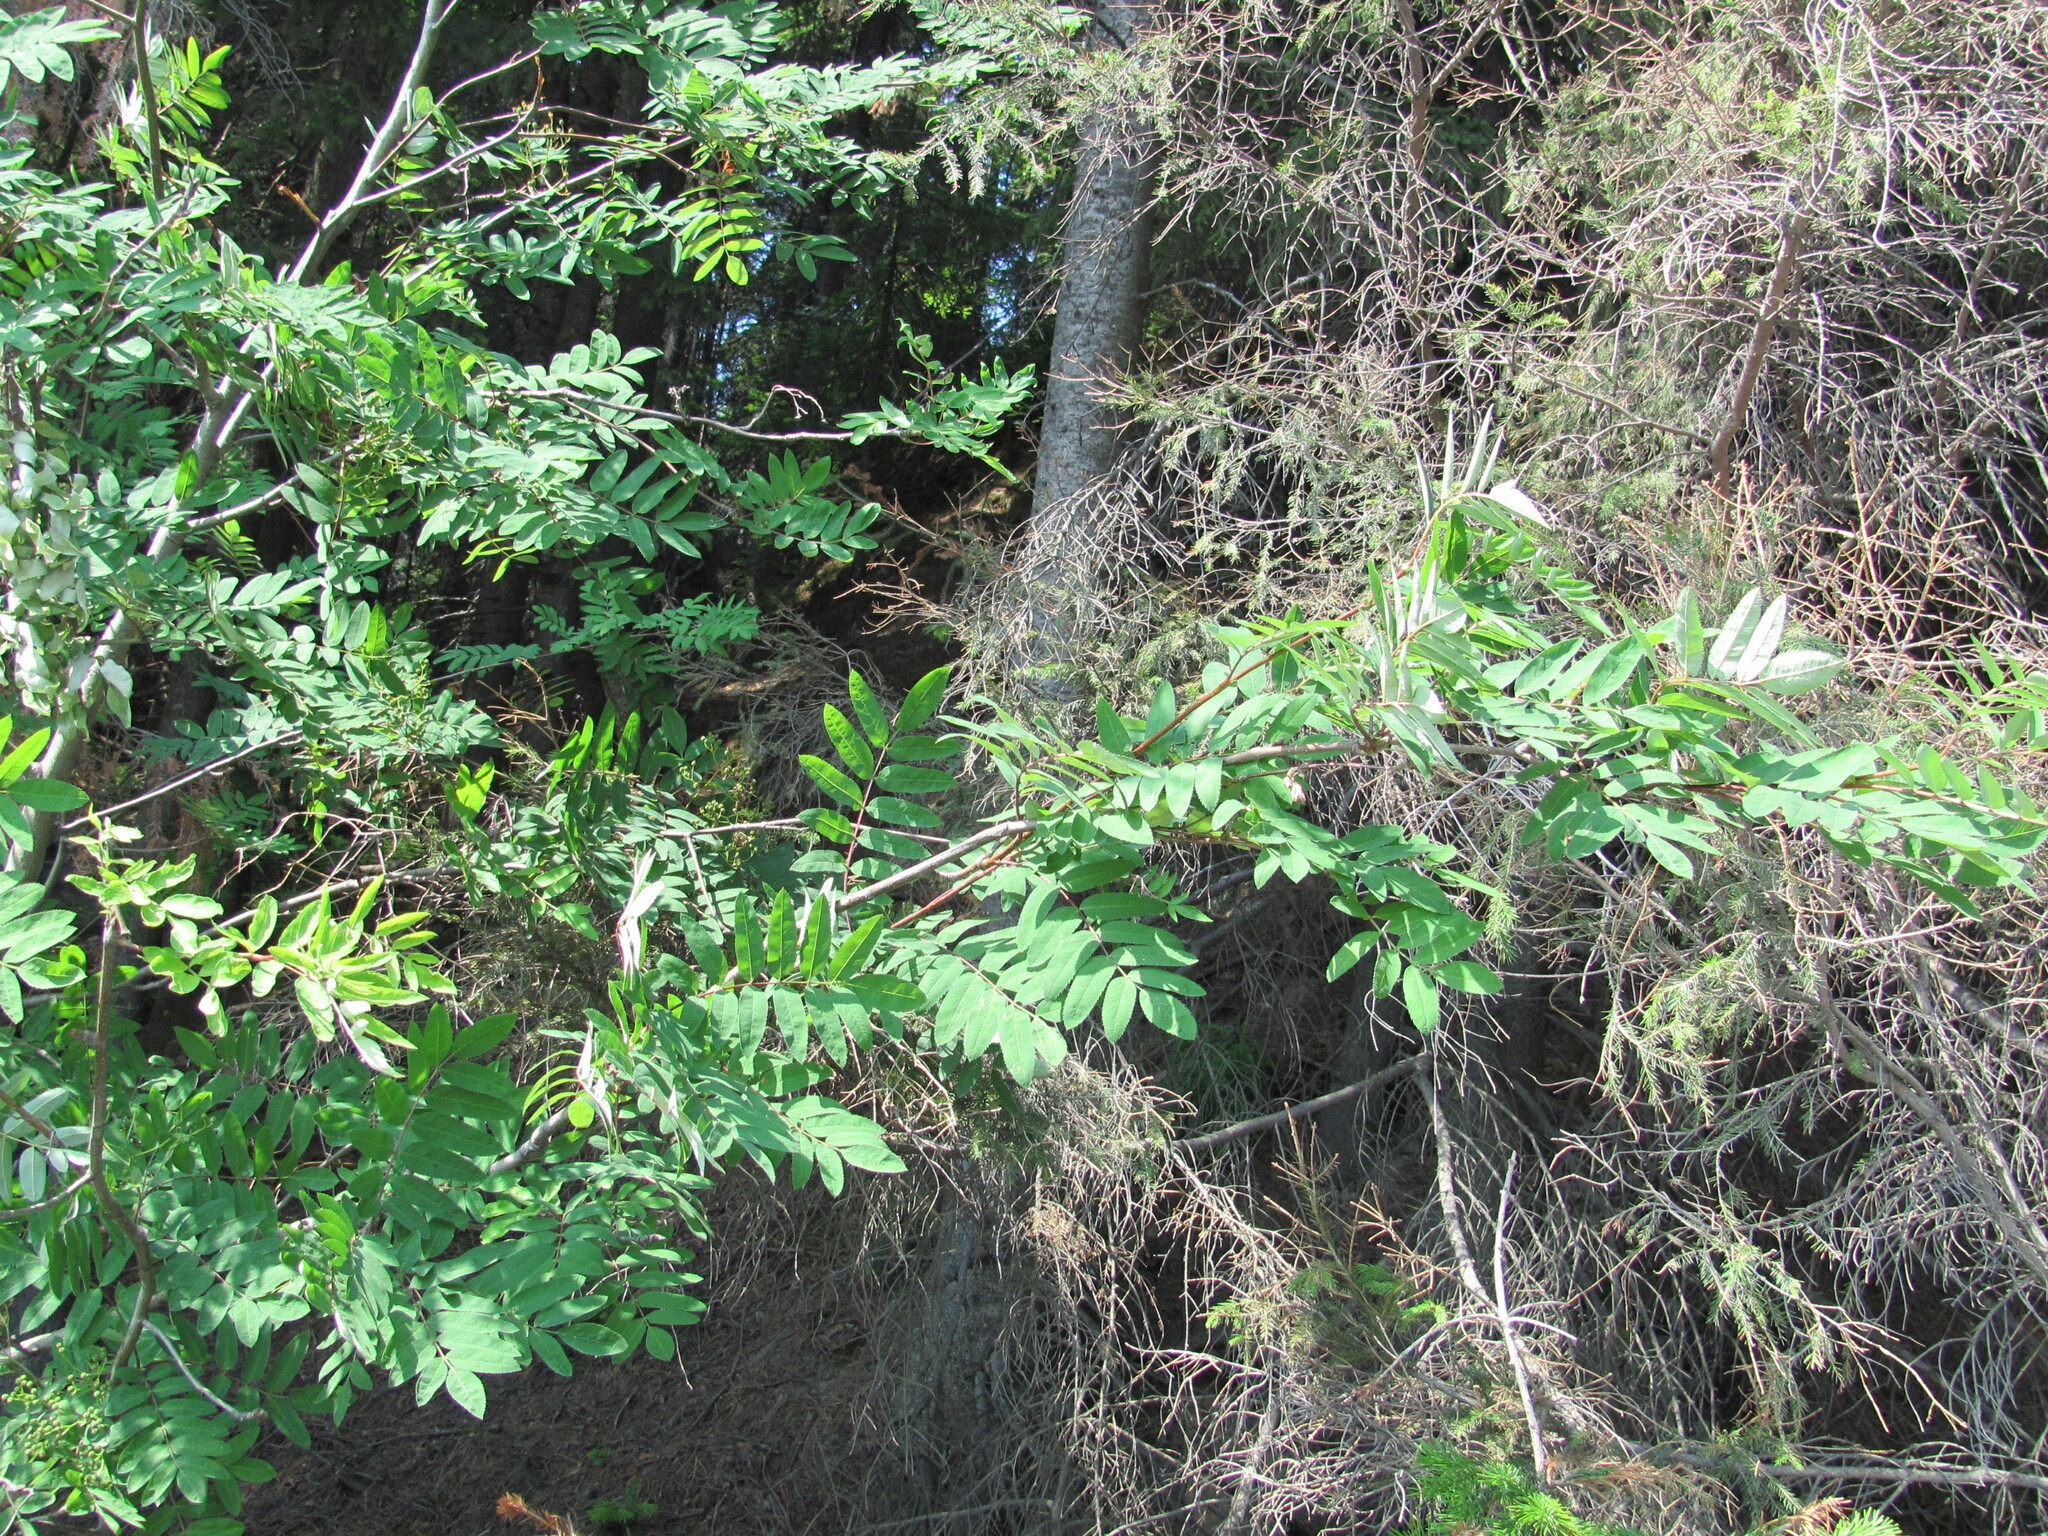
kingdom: Plantae
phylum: Tracheophyta
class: Magnoliopsida
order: Rosales
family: Rosaceae
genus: Sorbus
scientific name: Sorbus aucuparia
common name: Rowan
